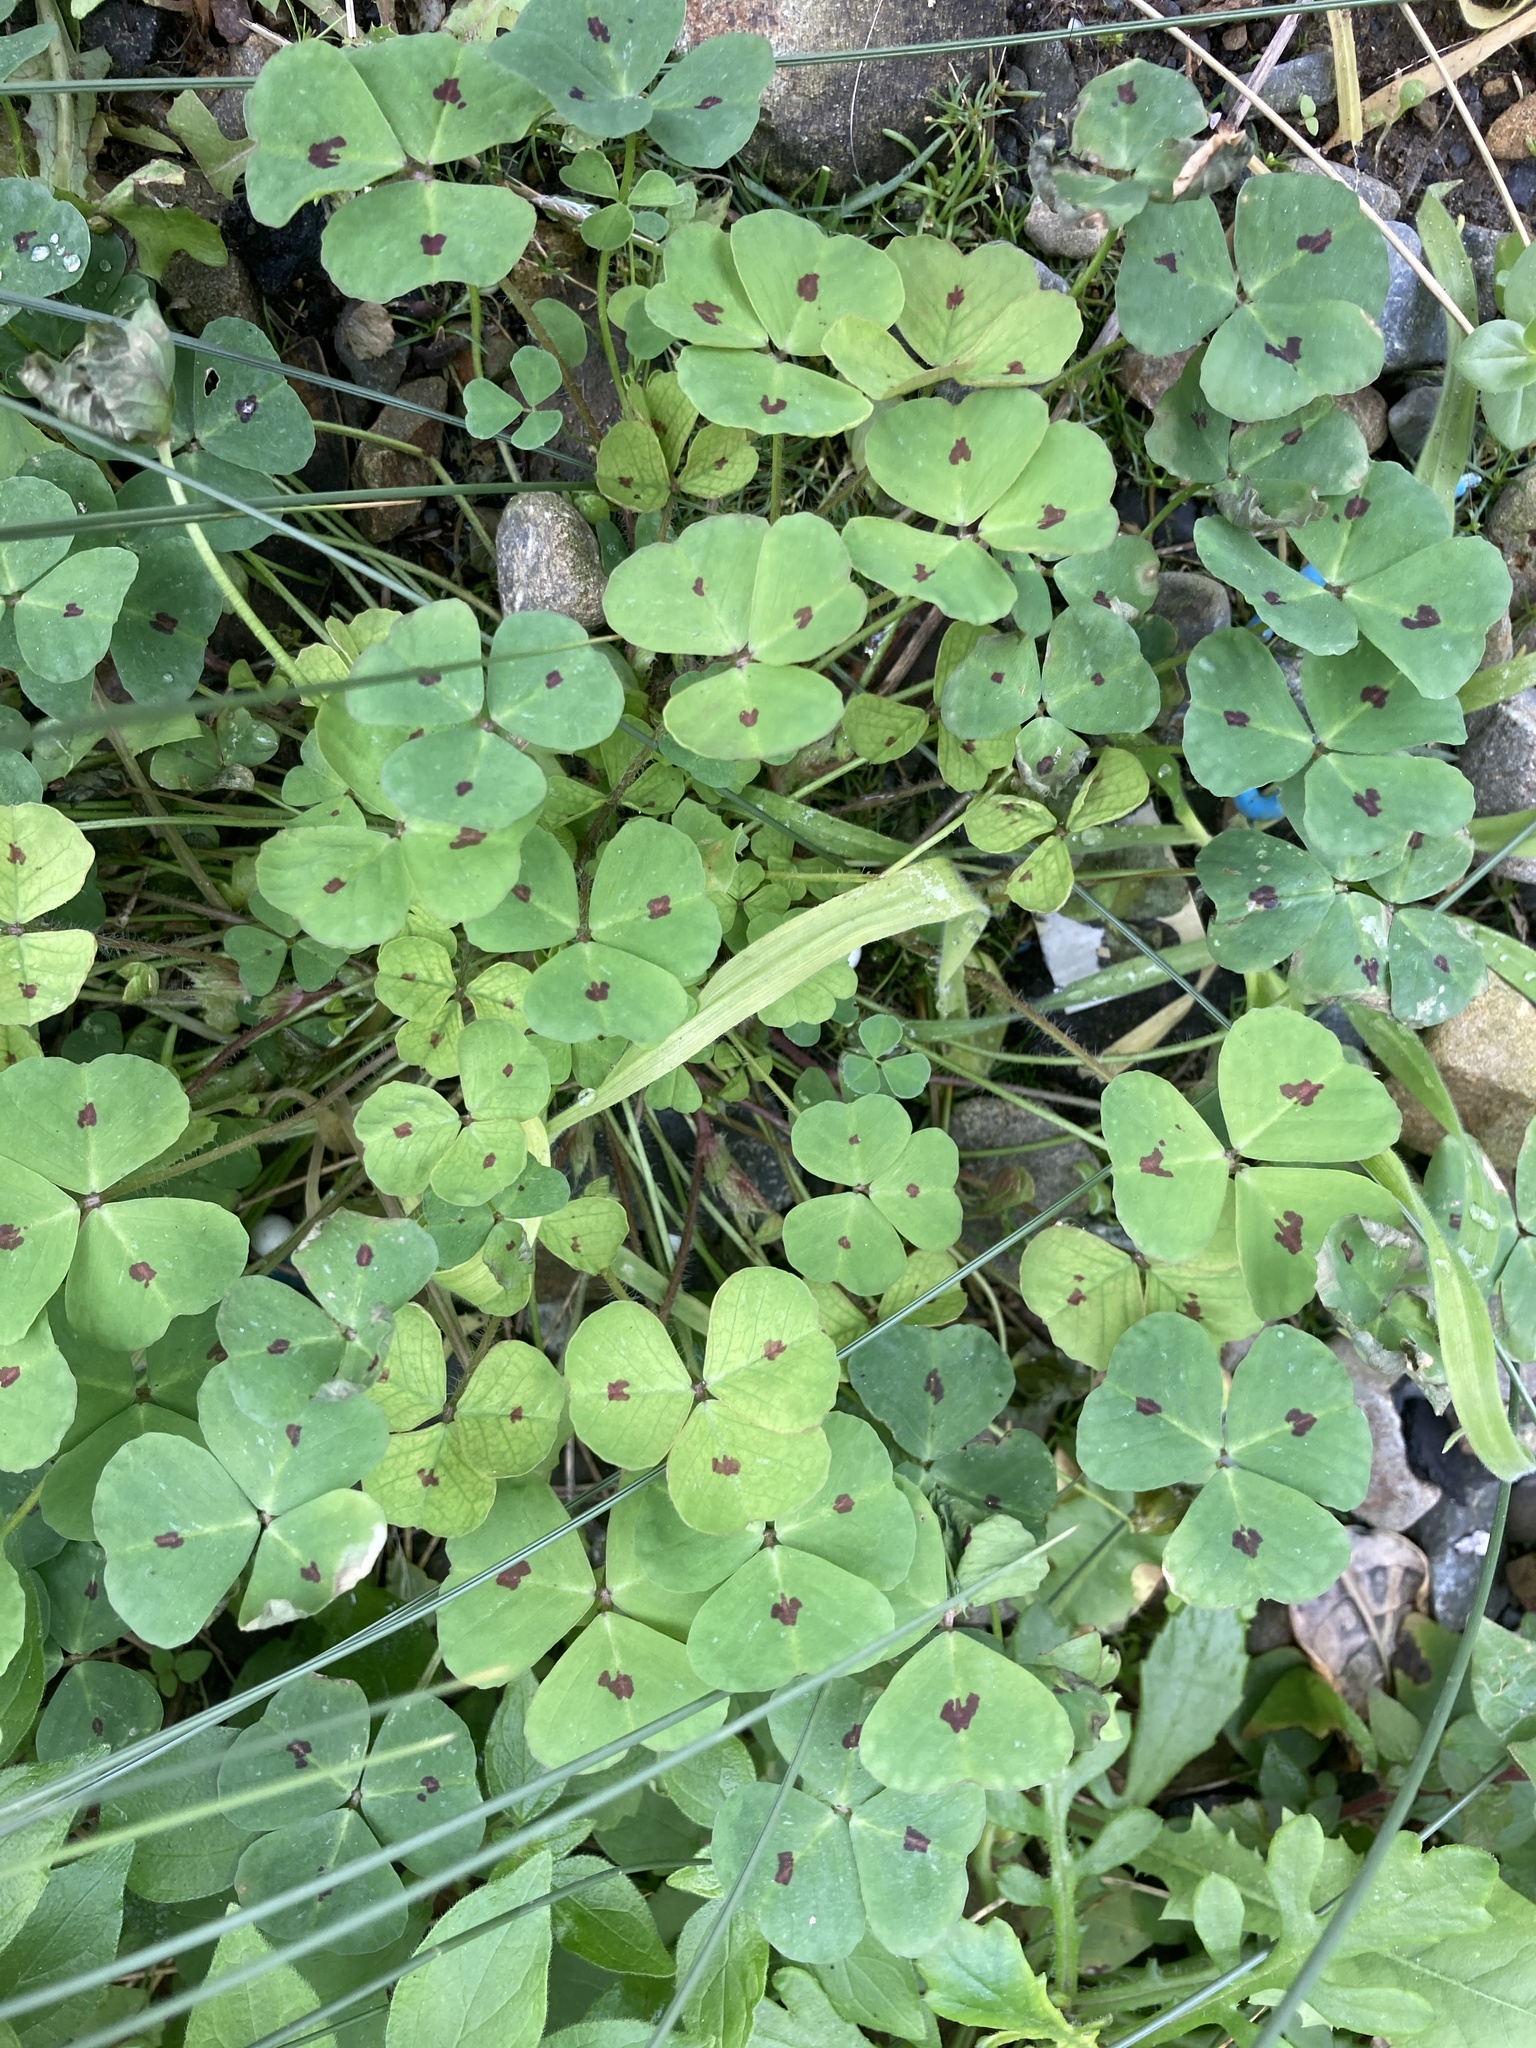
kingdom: Plantae
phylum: Tracheophyta
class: Magnoliopsida
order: Fabales
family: Fabaceae
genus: Medicago
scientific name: Medicago arabica
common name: Spotted medick
